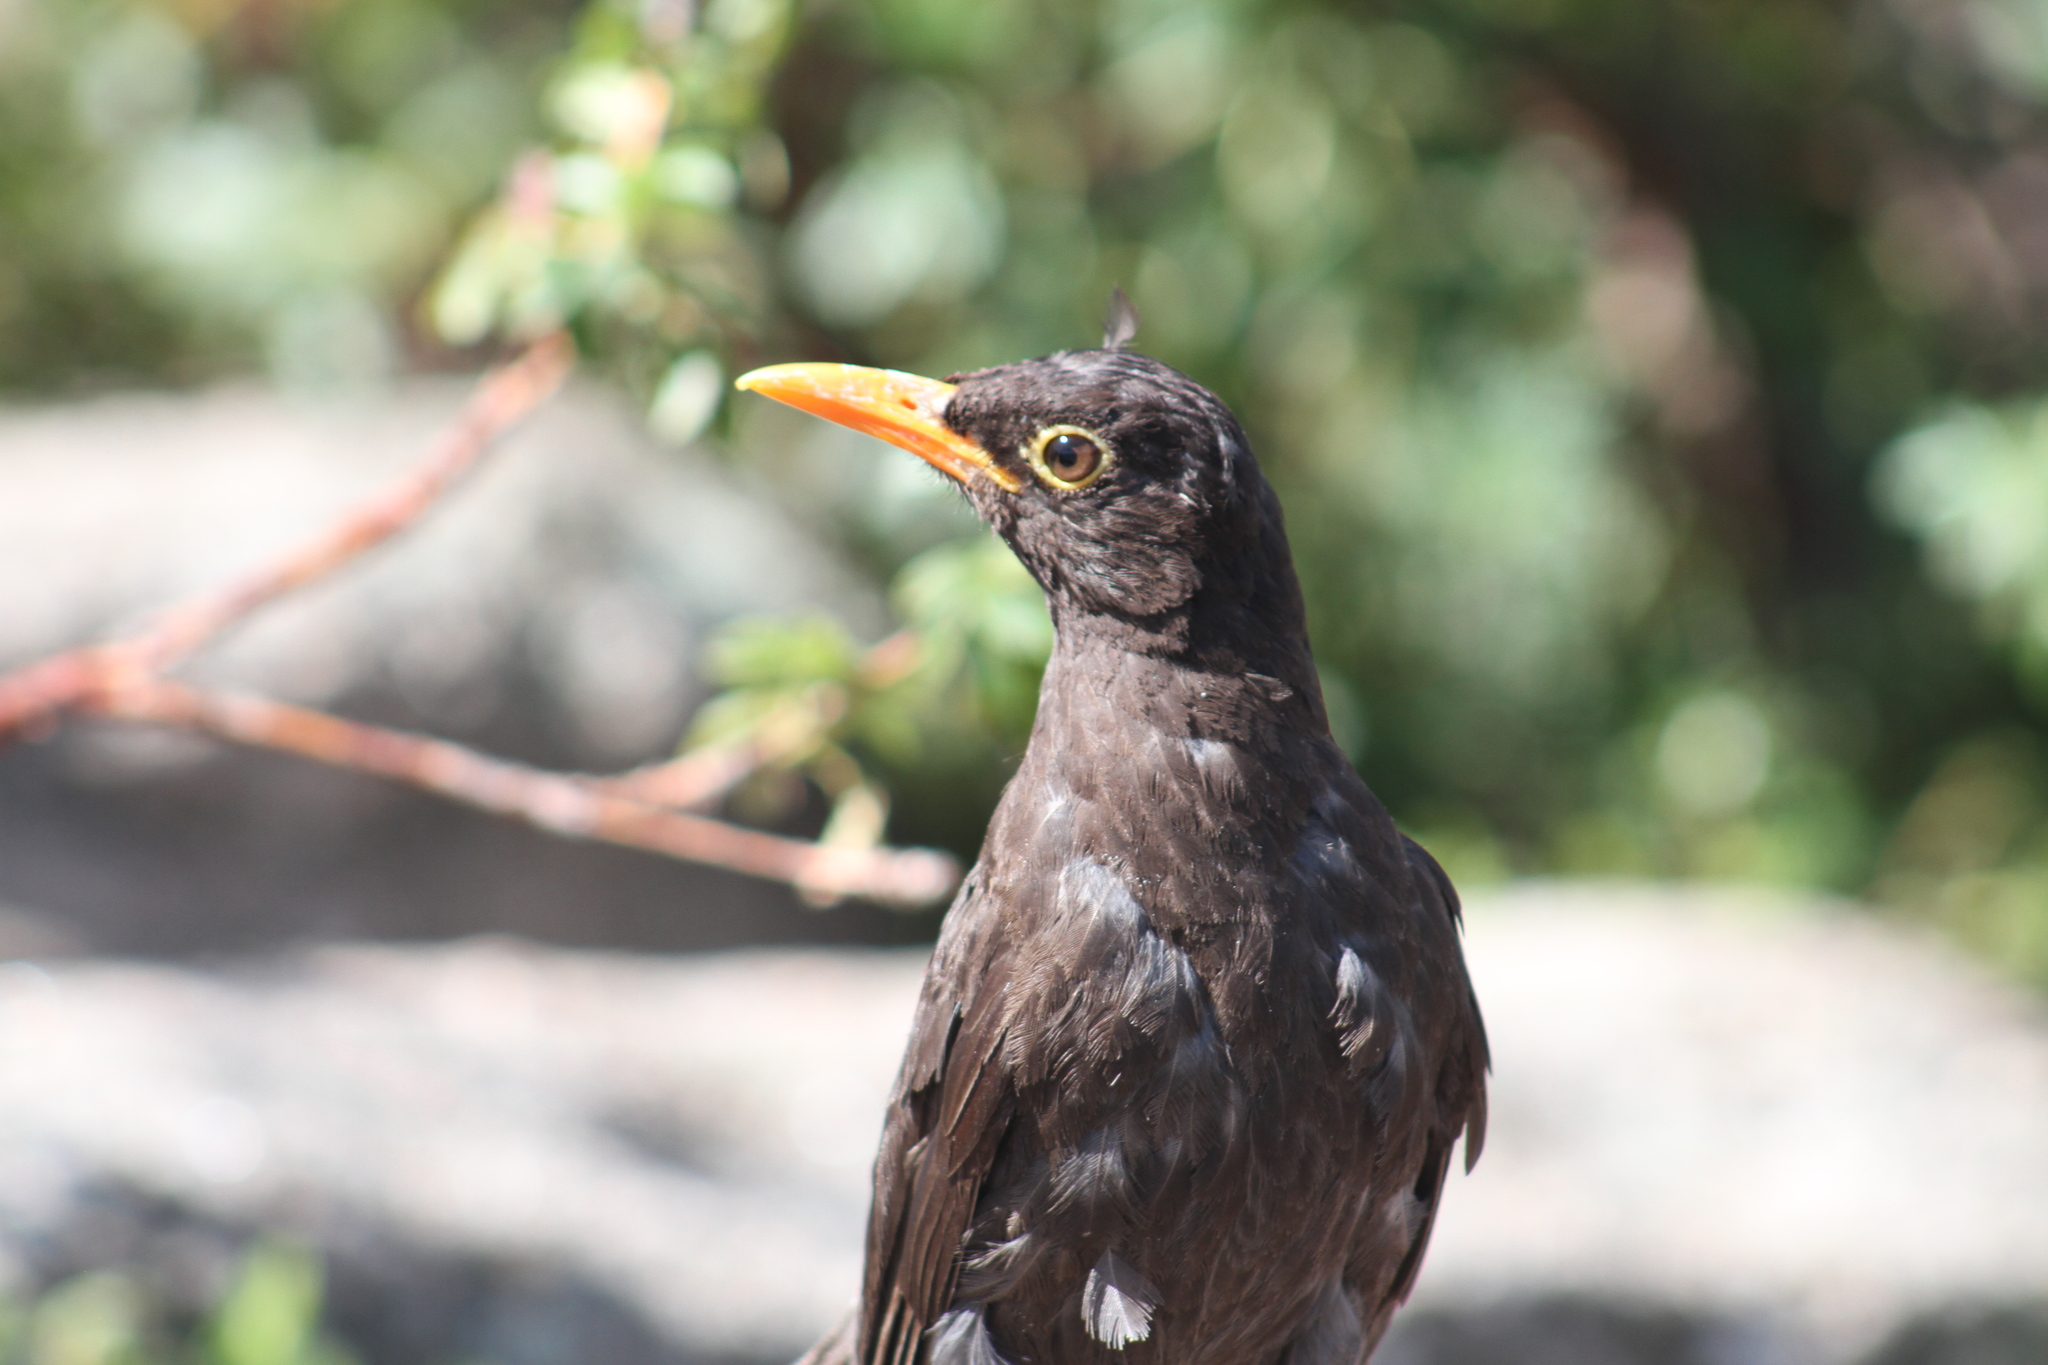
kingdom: Animalia
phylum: Chordata
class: Aves
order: Passeriformes
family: Turdidae
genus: Turdus
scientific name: Turdus chiguanco
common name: Chiguanco thrush
